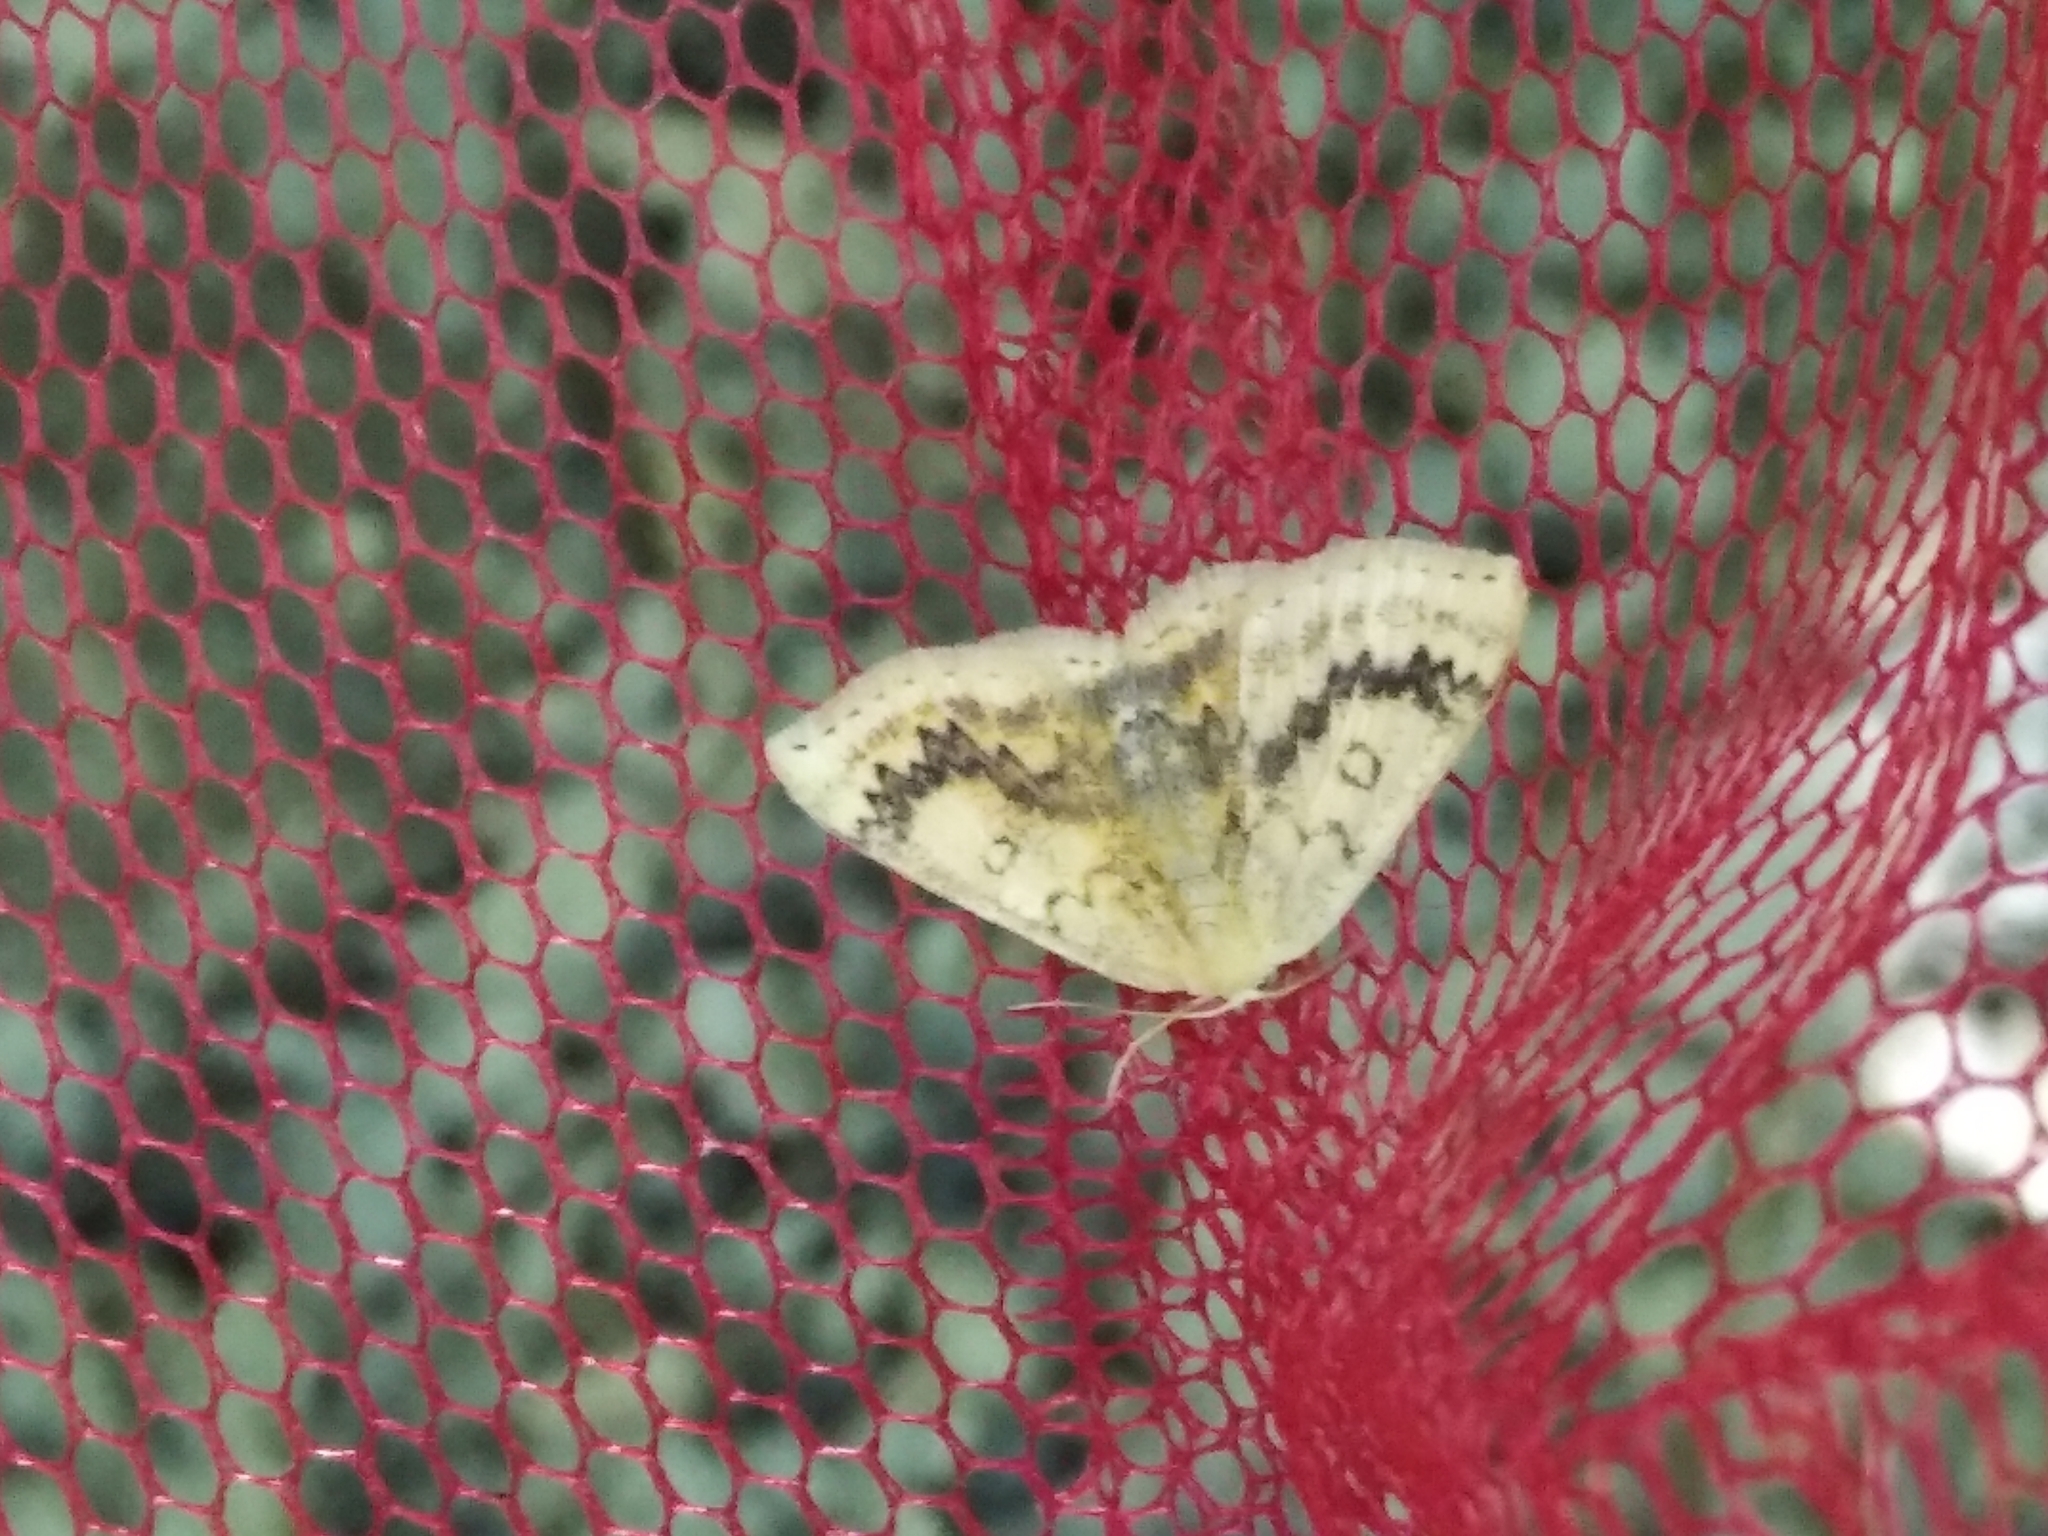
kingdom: Animalia
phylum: Arthropoda
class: Insecta
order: Lepidoptera
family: Geometridae
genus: Cyclophora
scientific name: Cyclophora annularia
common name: Mocha
